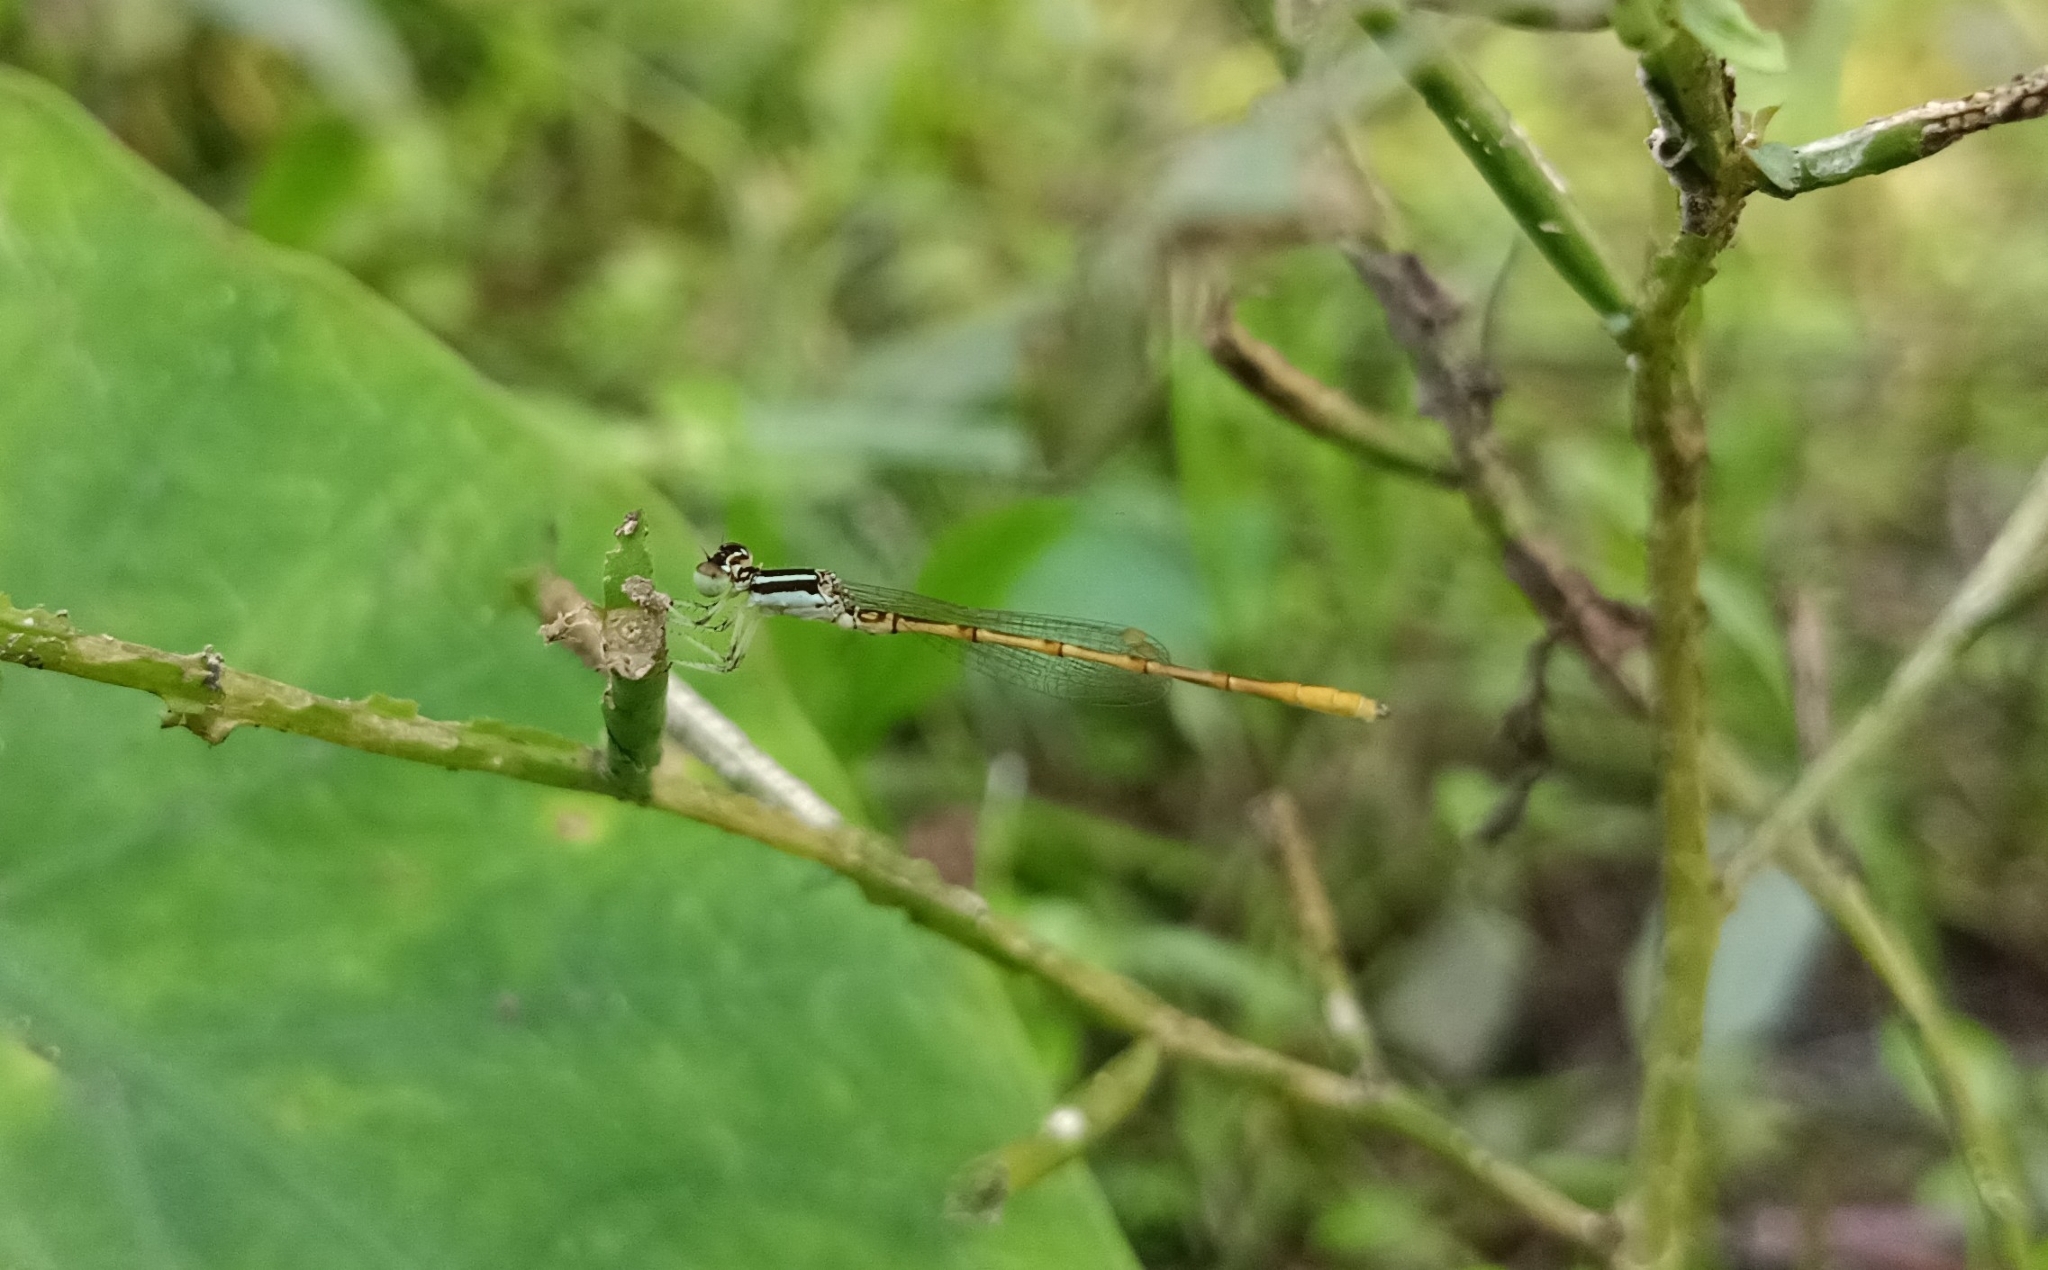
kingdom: Animalia
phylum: Arthropoda
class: Insecta
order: Odonata
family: Coenagrionidae
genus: Agriocnemis
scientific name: Agriocnemis keralensis
